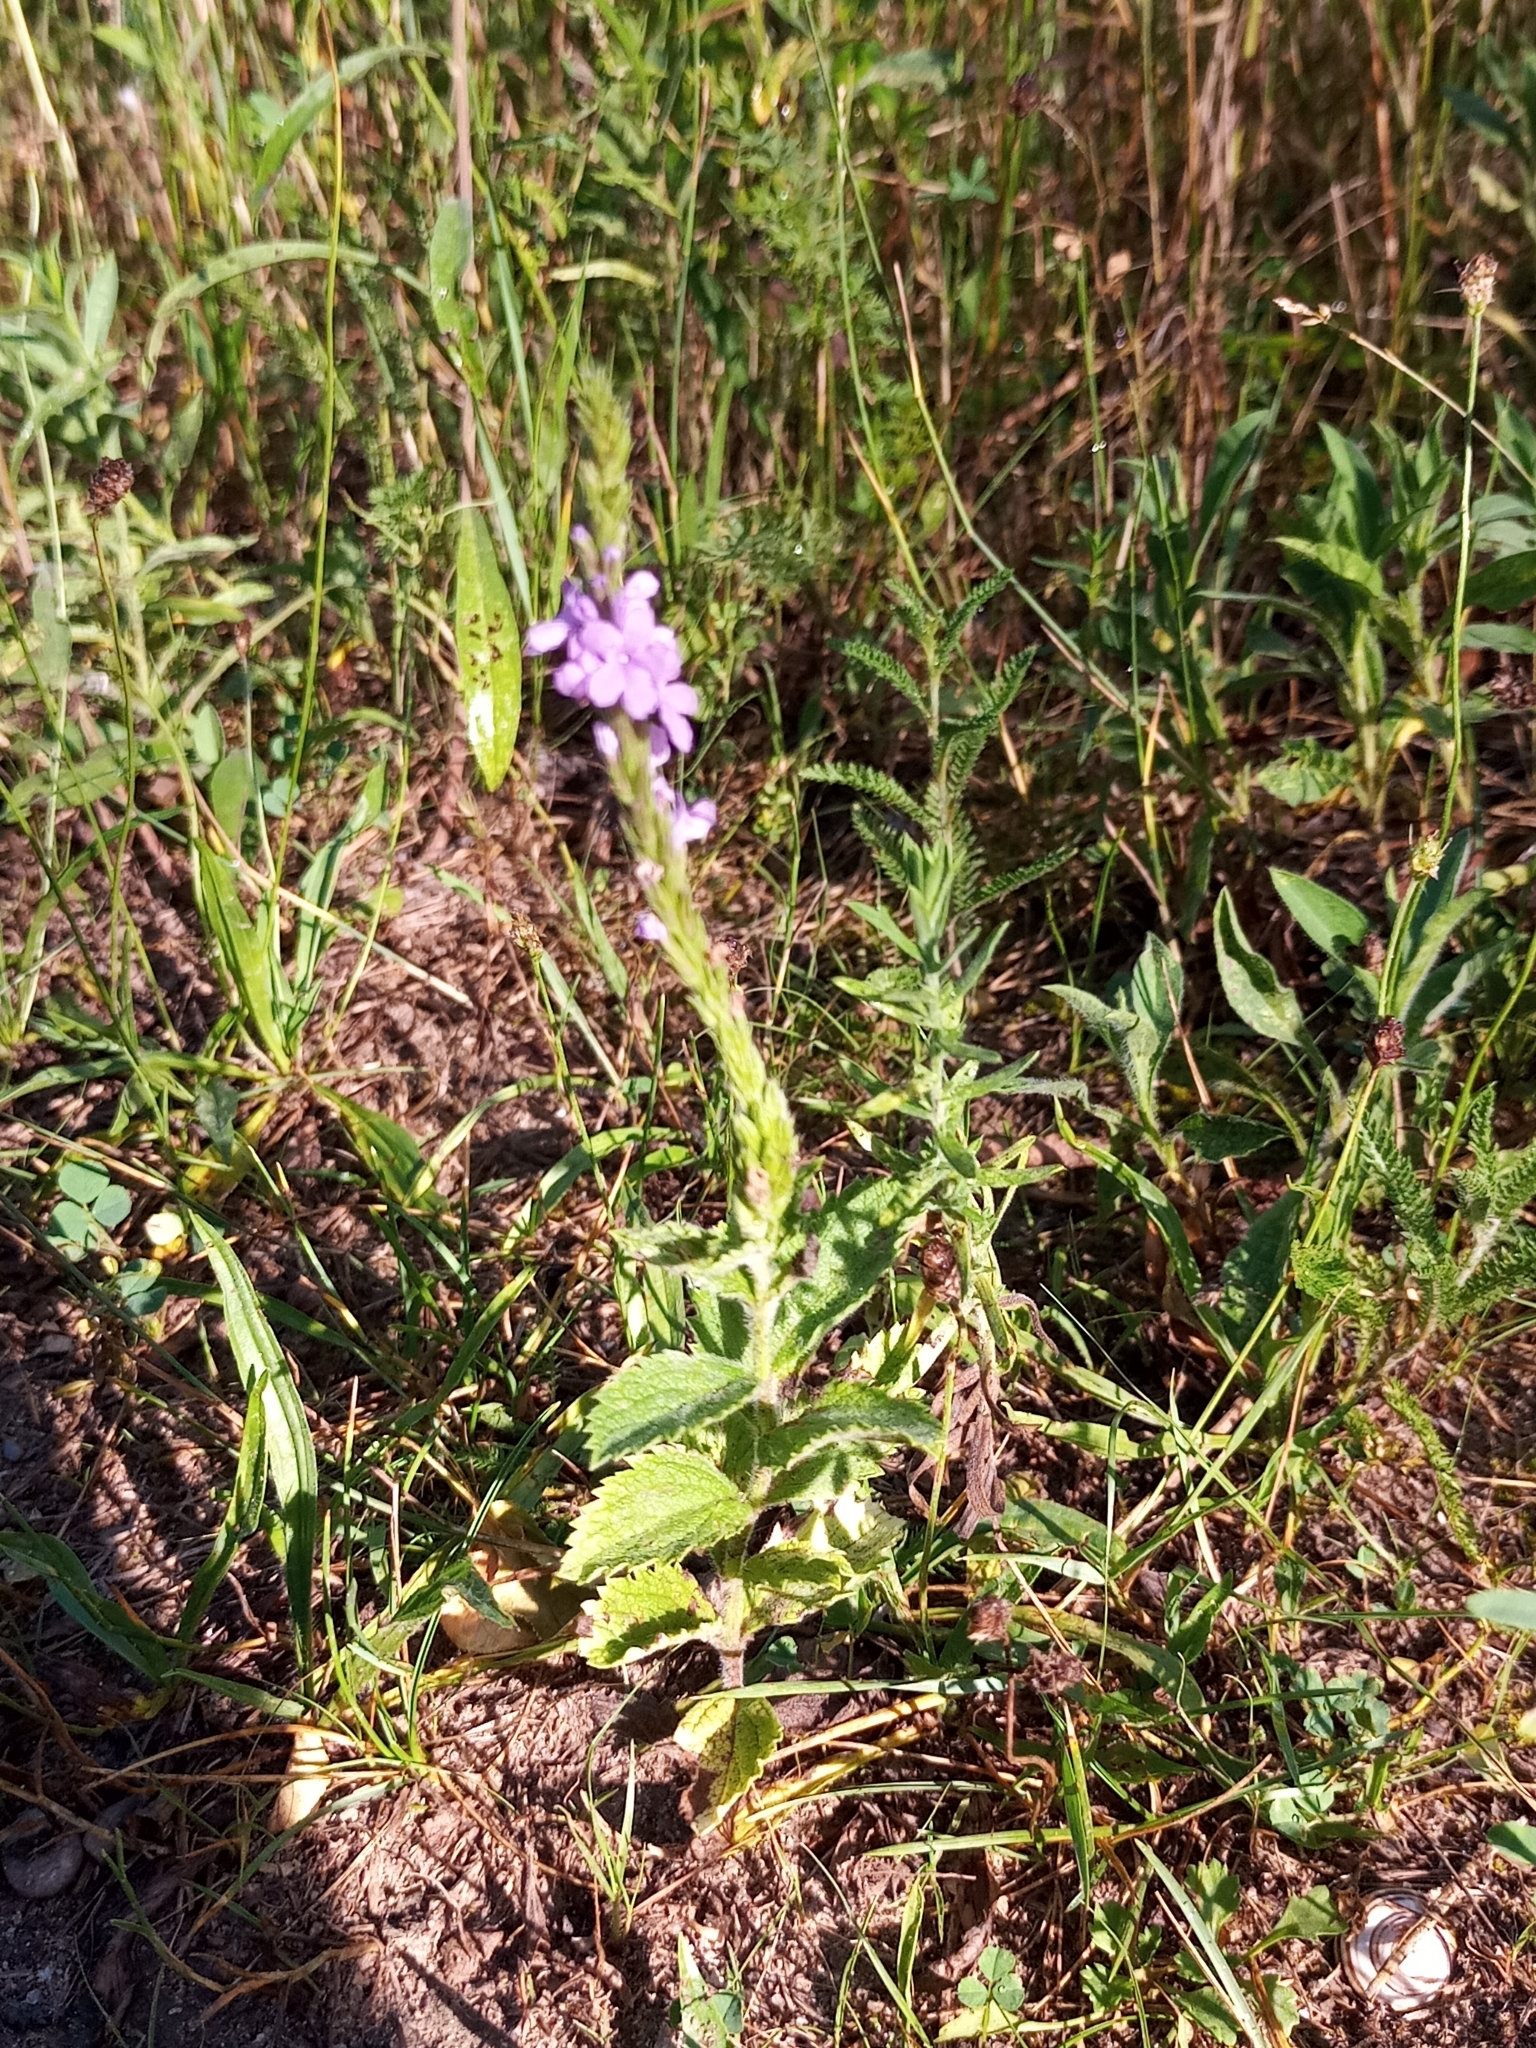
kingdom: Plantae
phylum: Tracheophyta
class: Magnoliopsida
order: Lamiales
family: Verbenaceae
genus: Verbena
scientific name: Verbena stricta
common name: Hoary vervain
